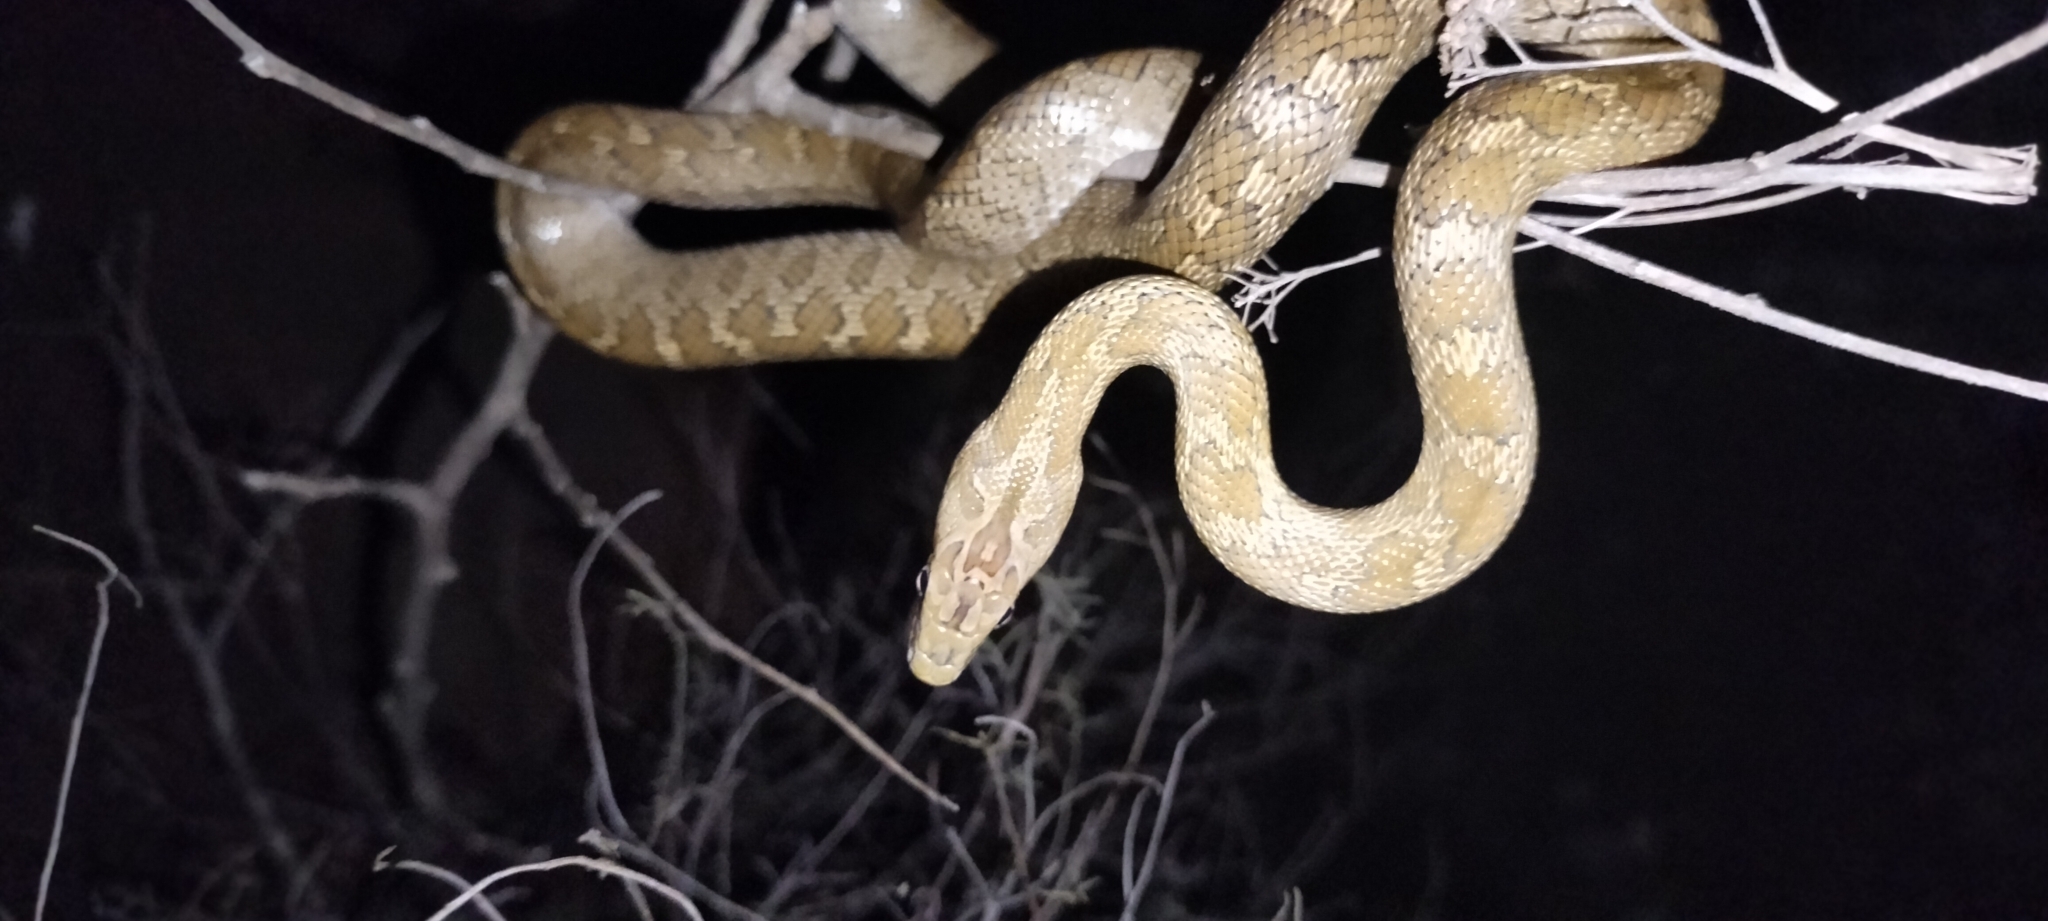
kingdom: Animalia
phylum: Chordata
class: Squamata
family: Colubridae
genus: Senticolis
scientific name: Senticolis triaspis
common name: Green rat snake
